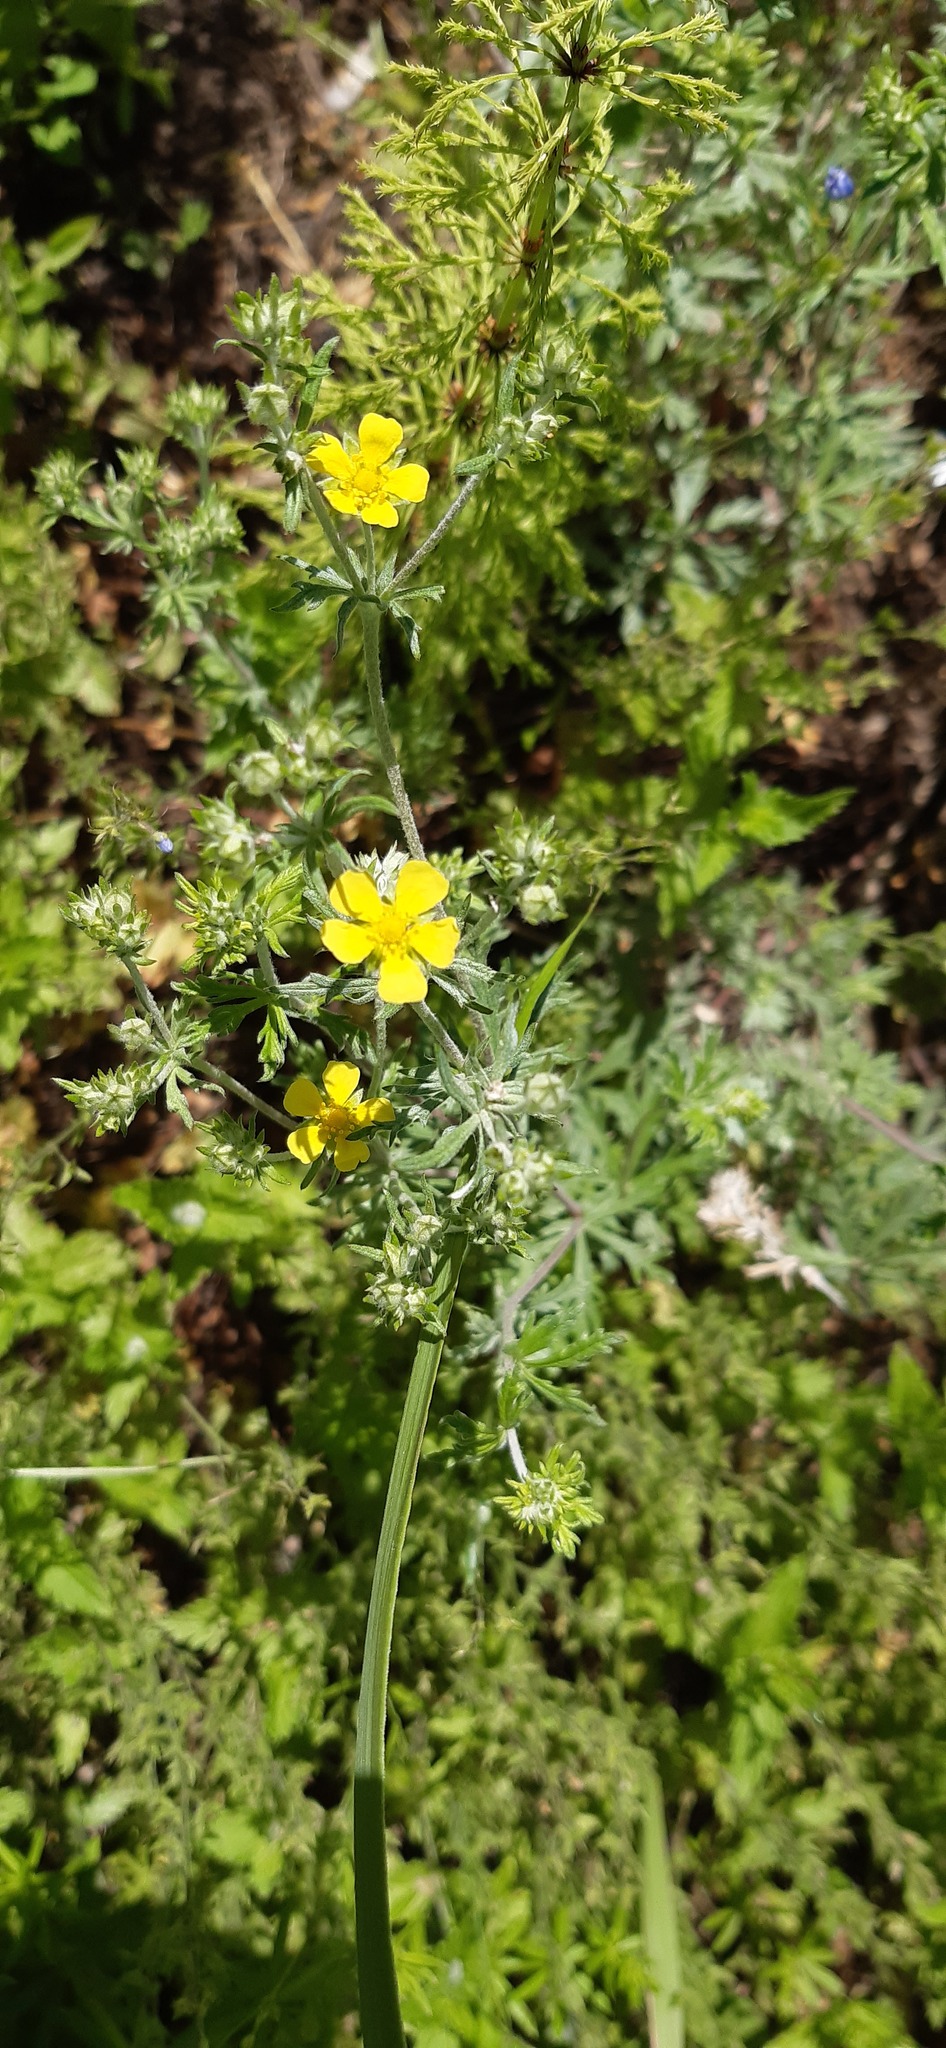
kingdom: Plantae
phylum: Tracheophyta
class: Magnoliopsida
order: Rosales
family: Rosaceae
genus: Potentilla
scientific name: Potentilla argentea
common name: Hoary cinquefoil
